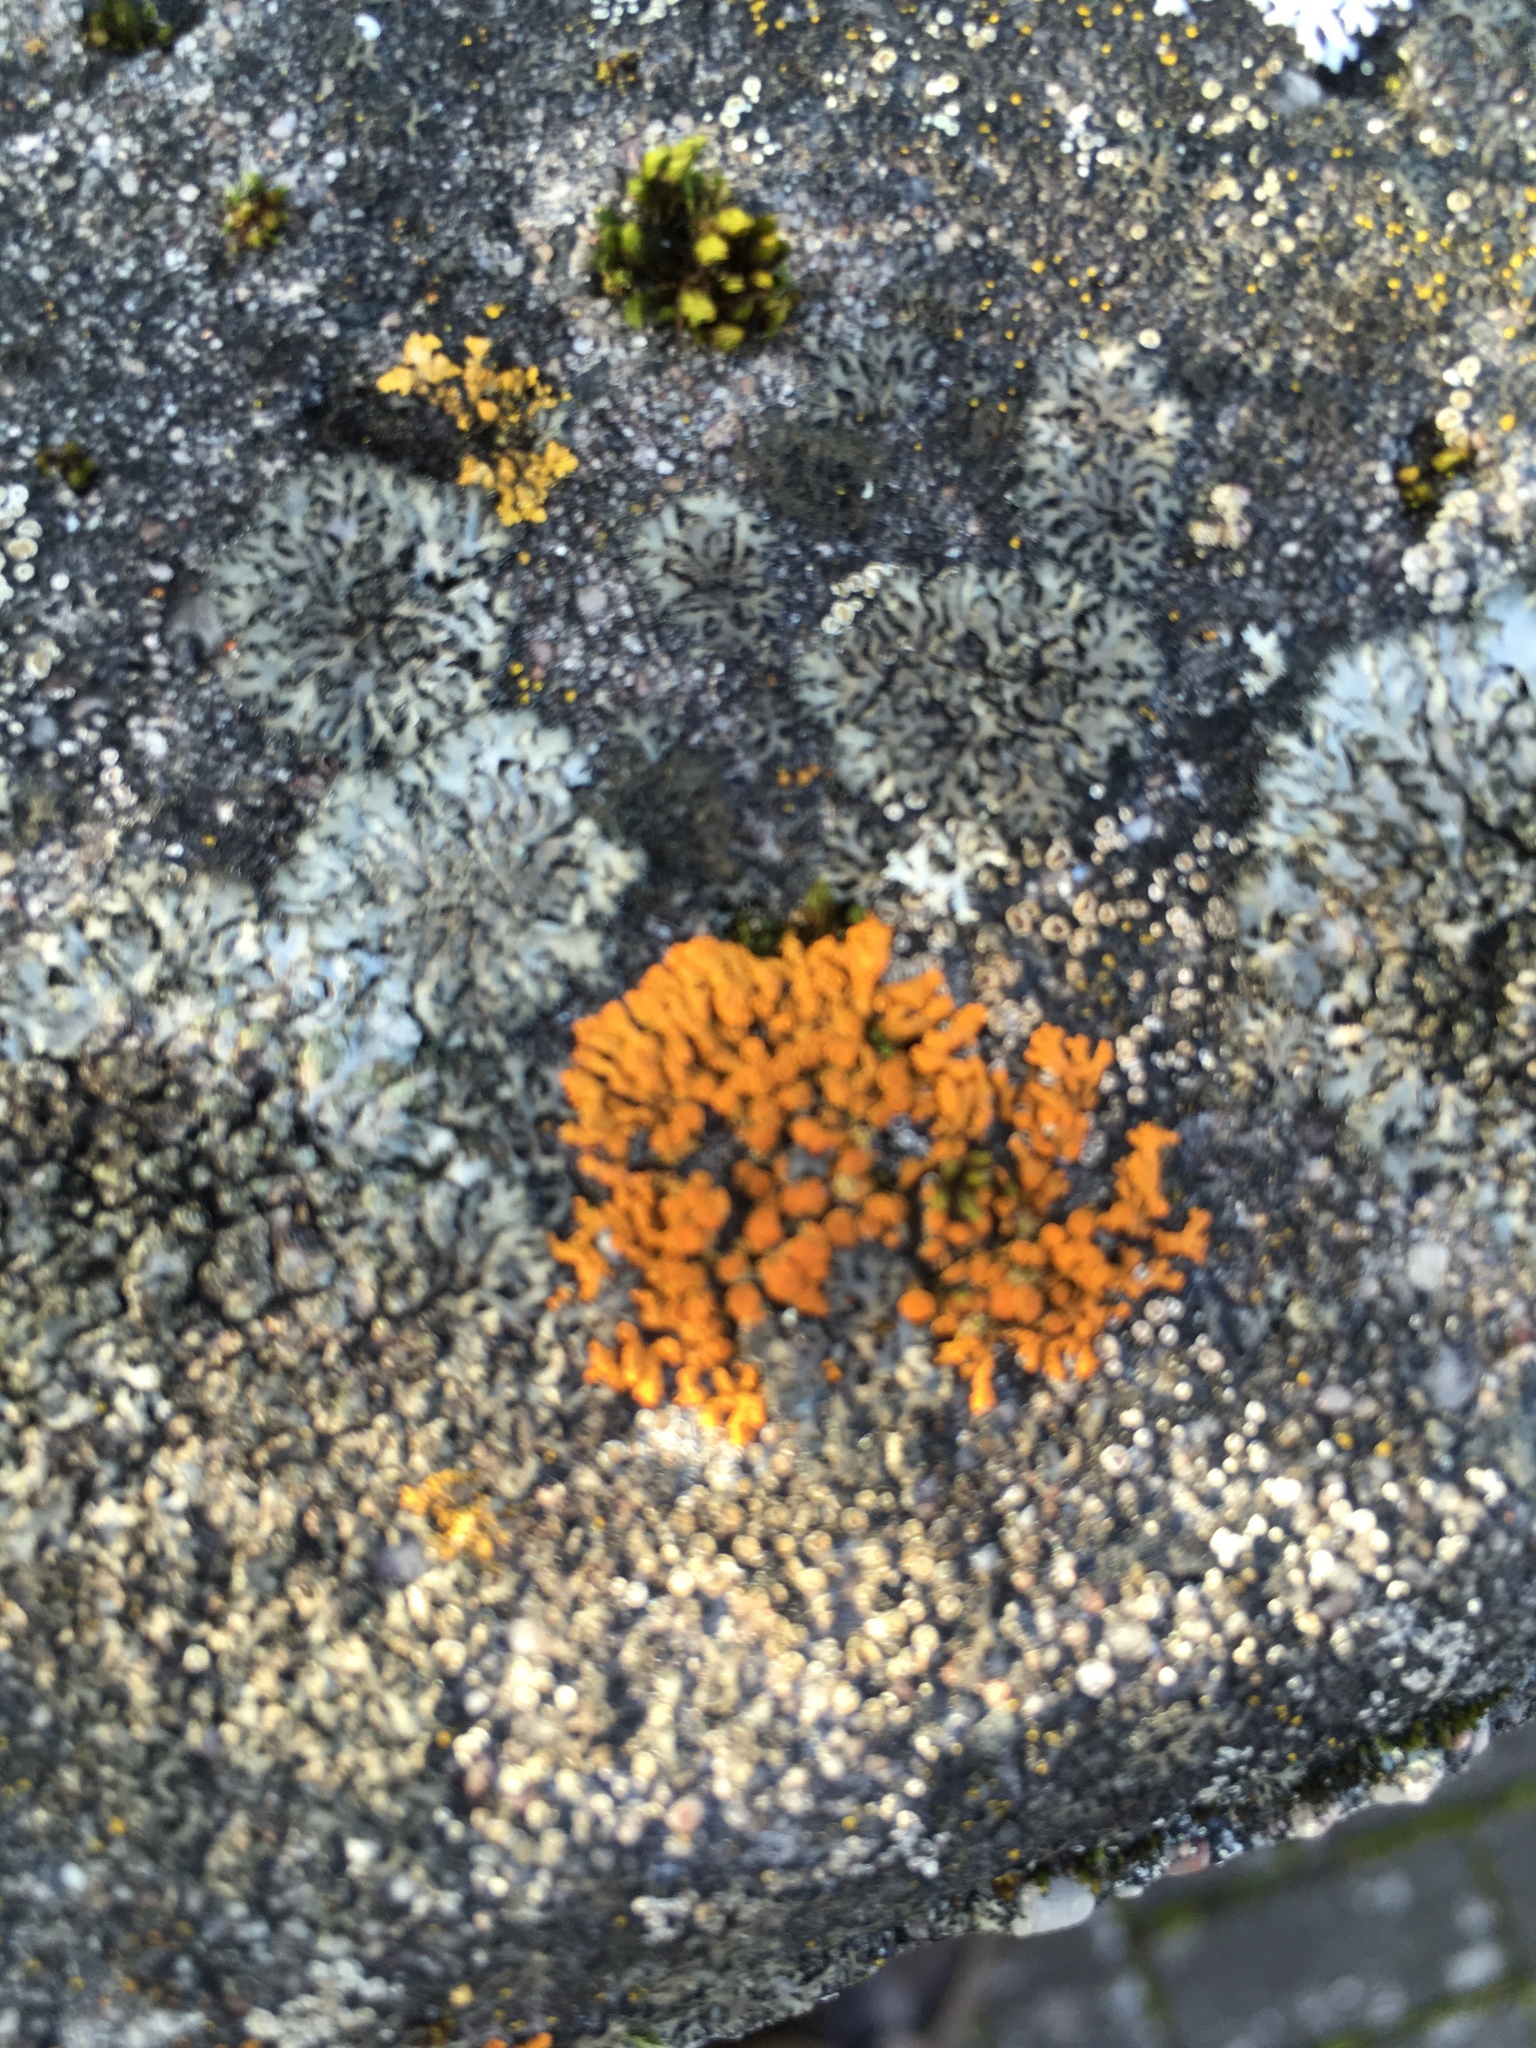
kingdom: Fungi
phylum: Ascomycota
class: Lecanoromycetes
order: Teloschistales
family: Teloschistaceae
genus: Xanthoria
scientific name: Xanthoria elegans
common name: Elegant sunburst lichen
